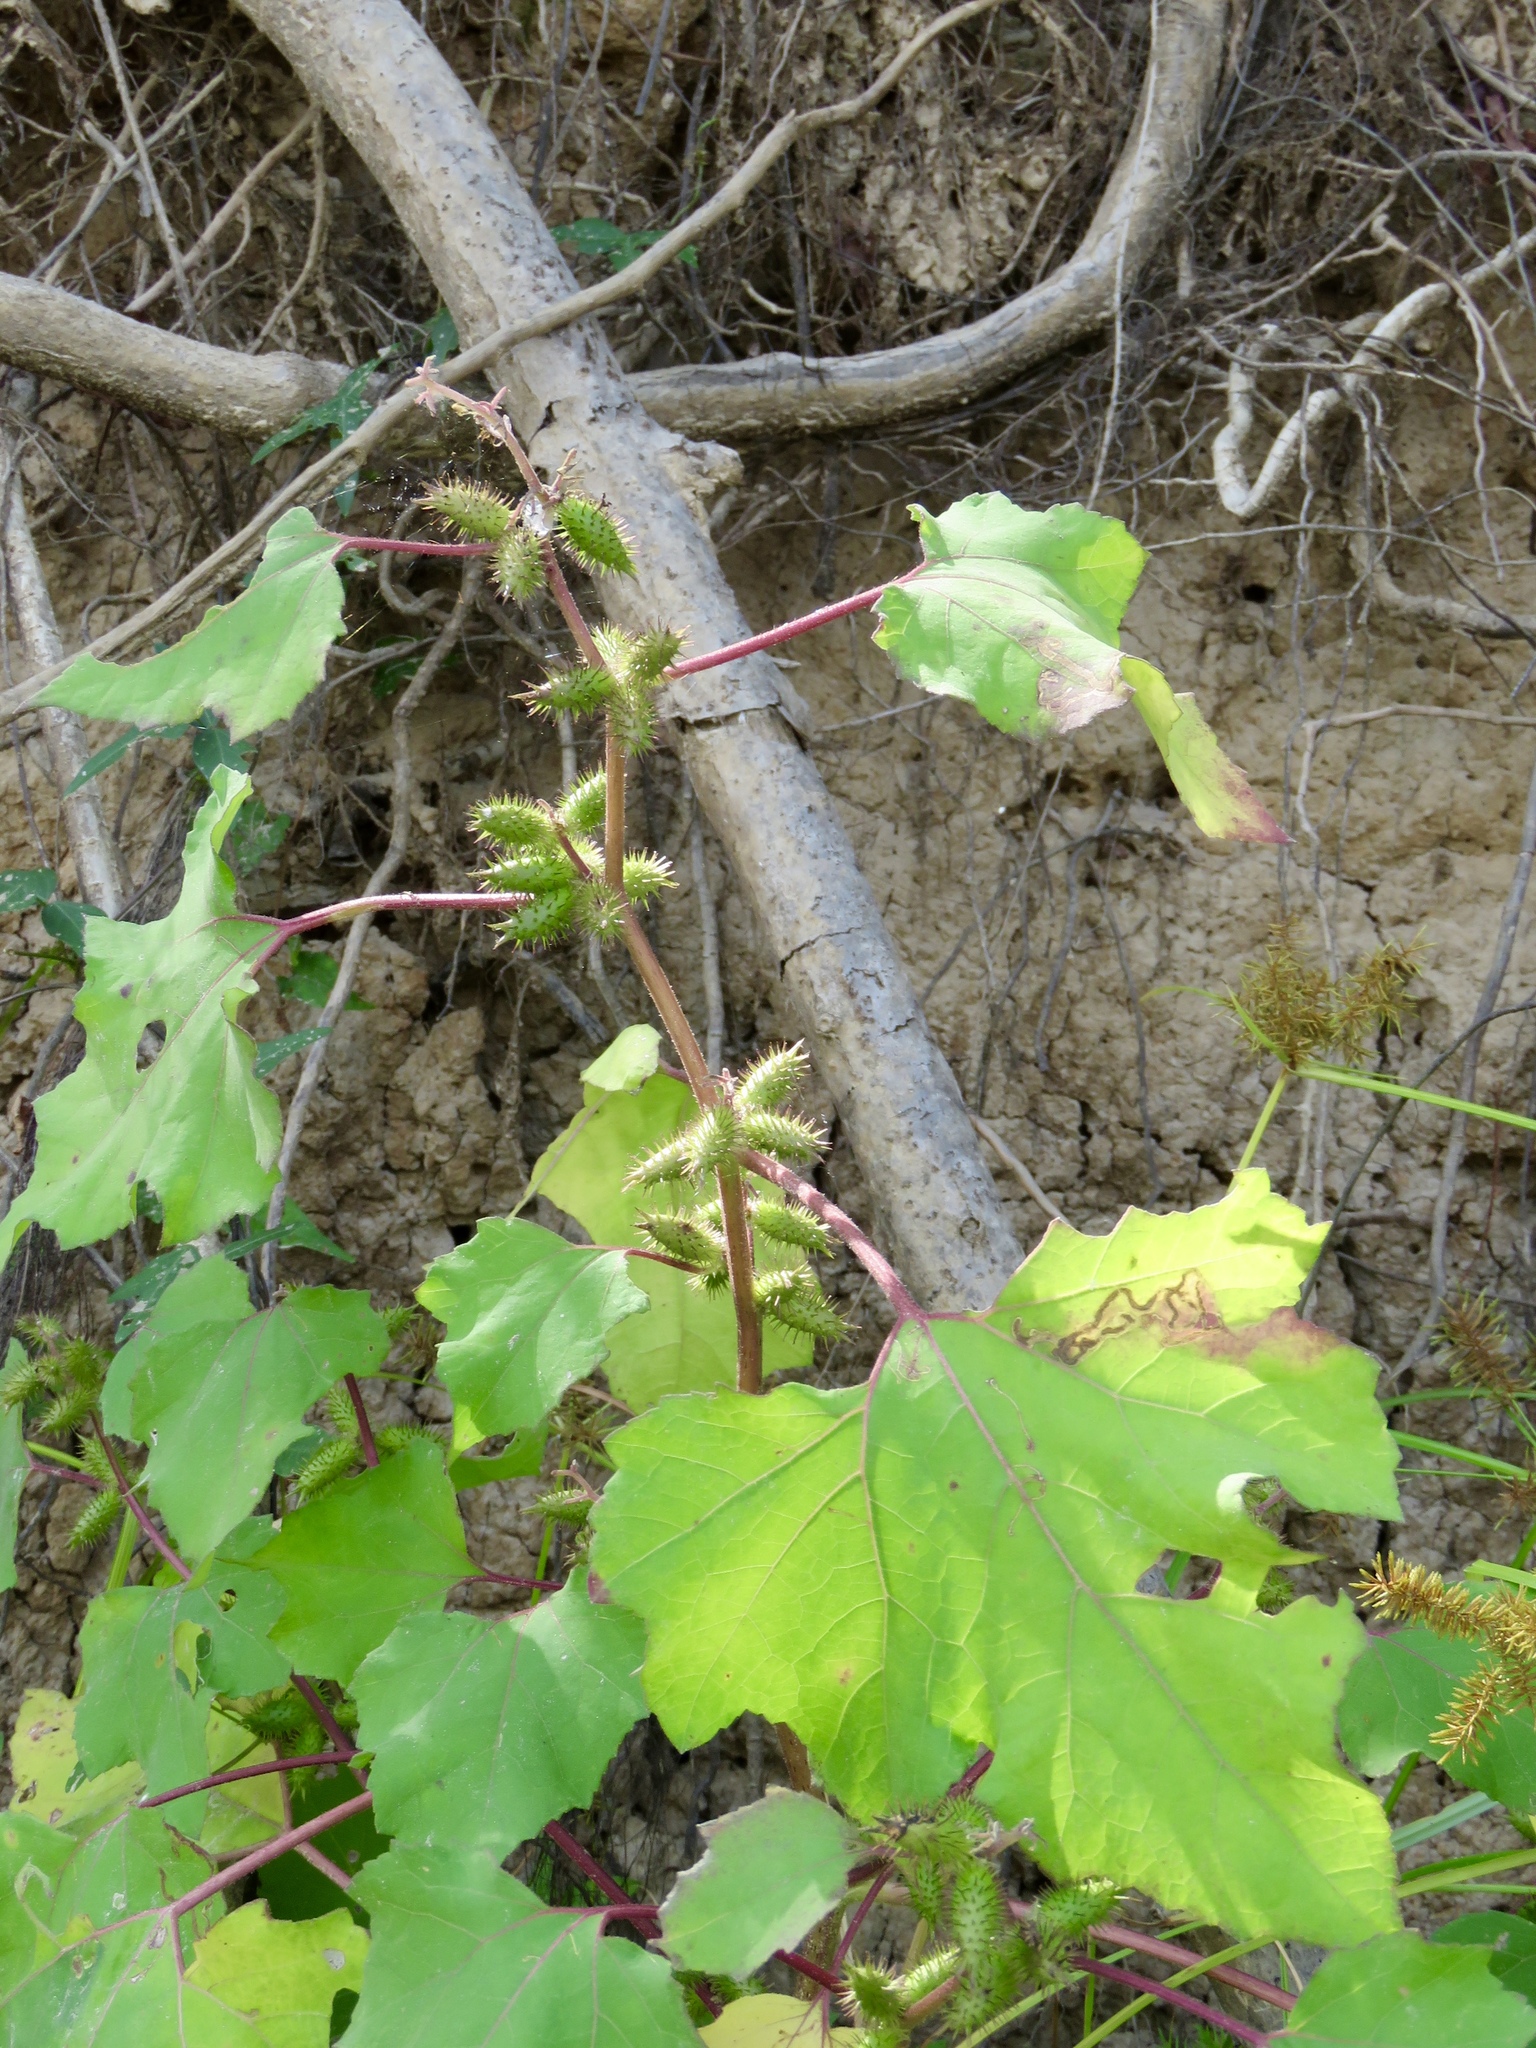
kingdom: Plantae
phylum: Tracheophyta
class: Magnoliopsida
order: Asterales
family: Asteraceae
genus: Xanthium
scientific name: Xanthium strumarium
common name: Rough cocklebur
